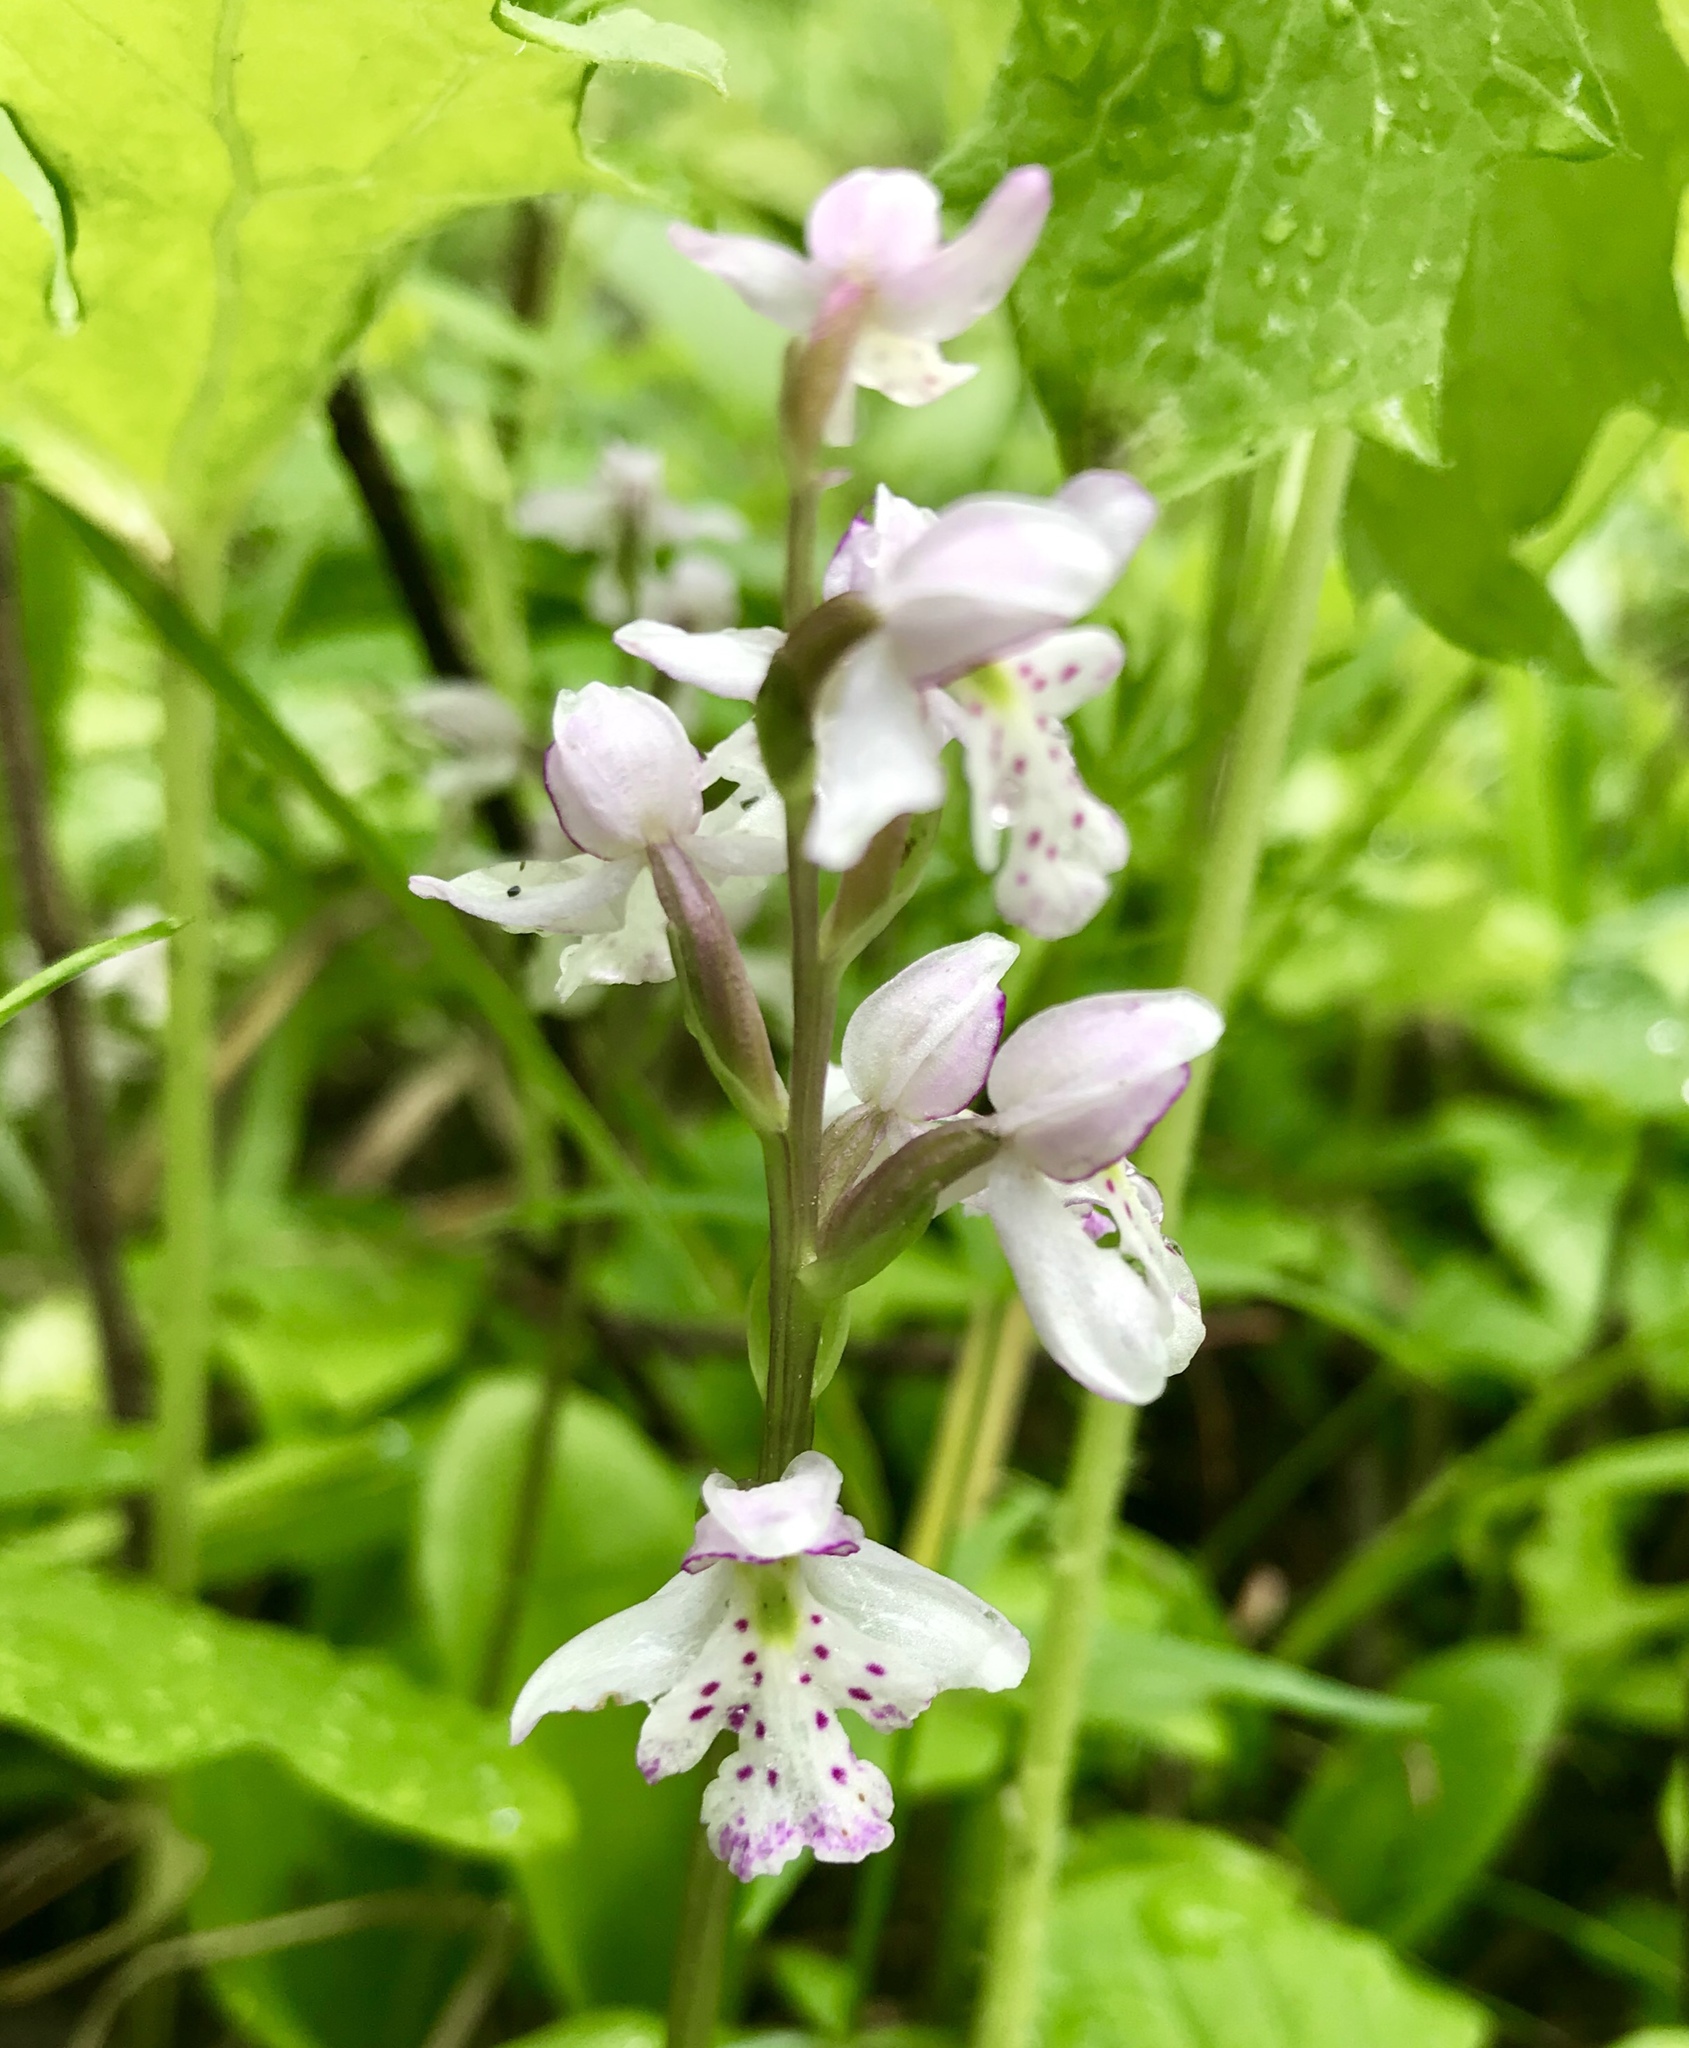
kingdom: Plantae
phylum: Tracheophyta
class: Liliopsida
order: Asparagales
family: Orchidaceae
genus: Galearis
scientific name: Galearis rotundifolia
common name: One-leaved orchis
